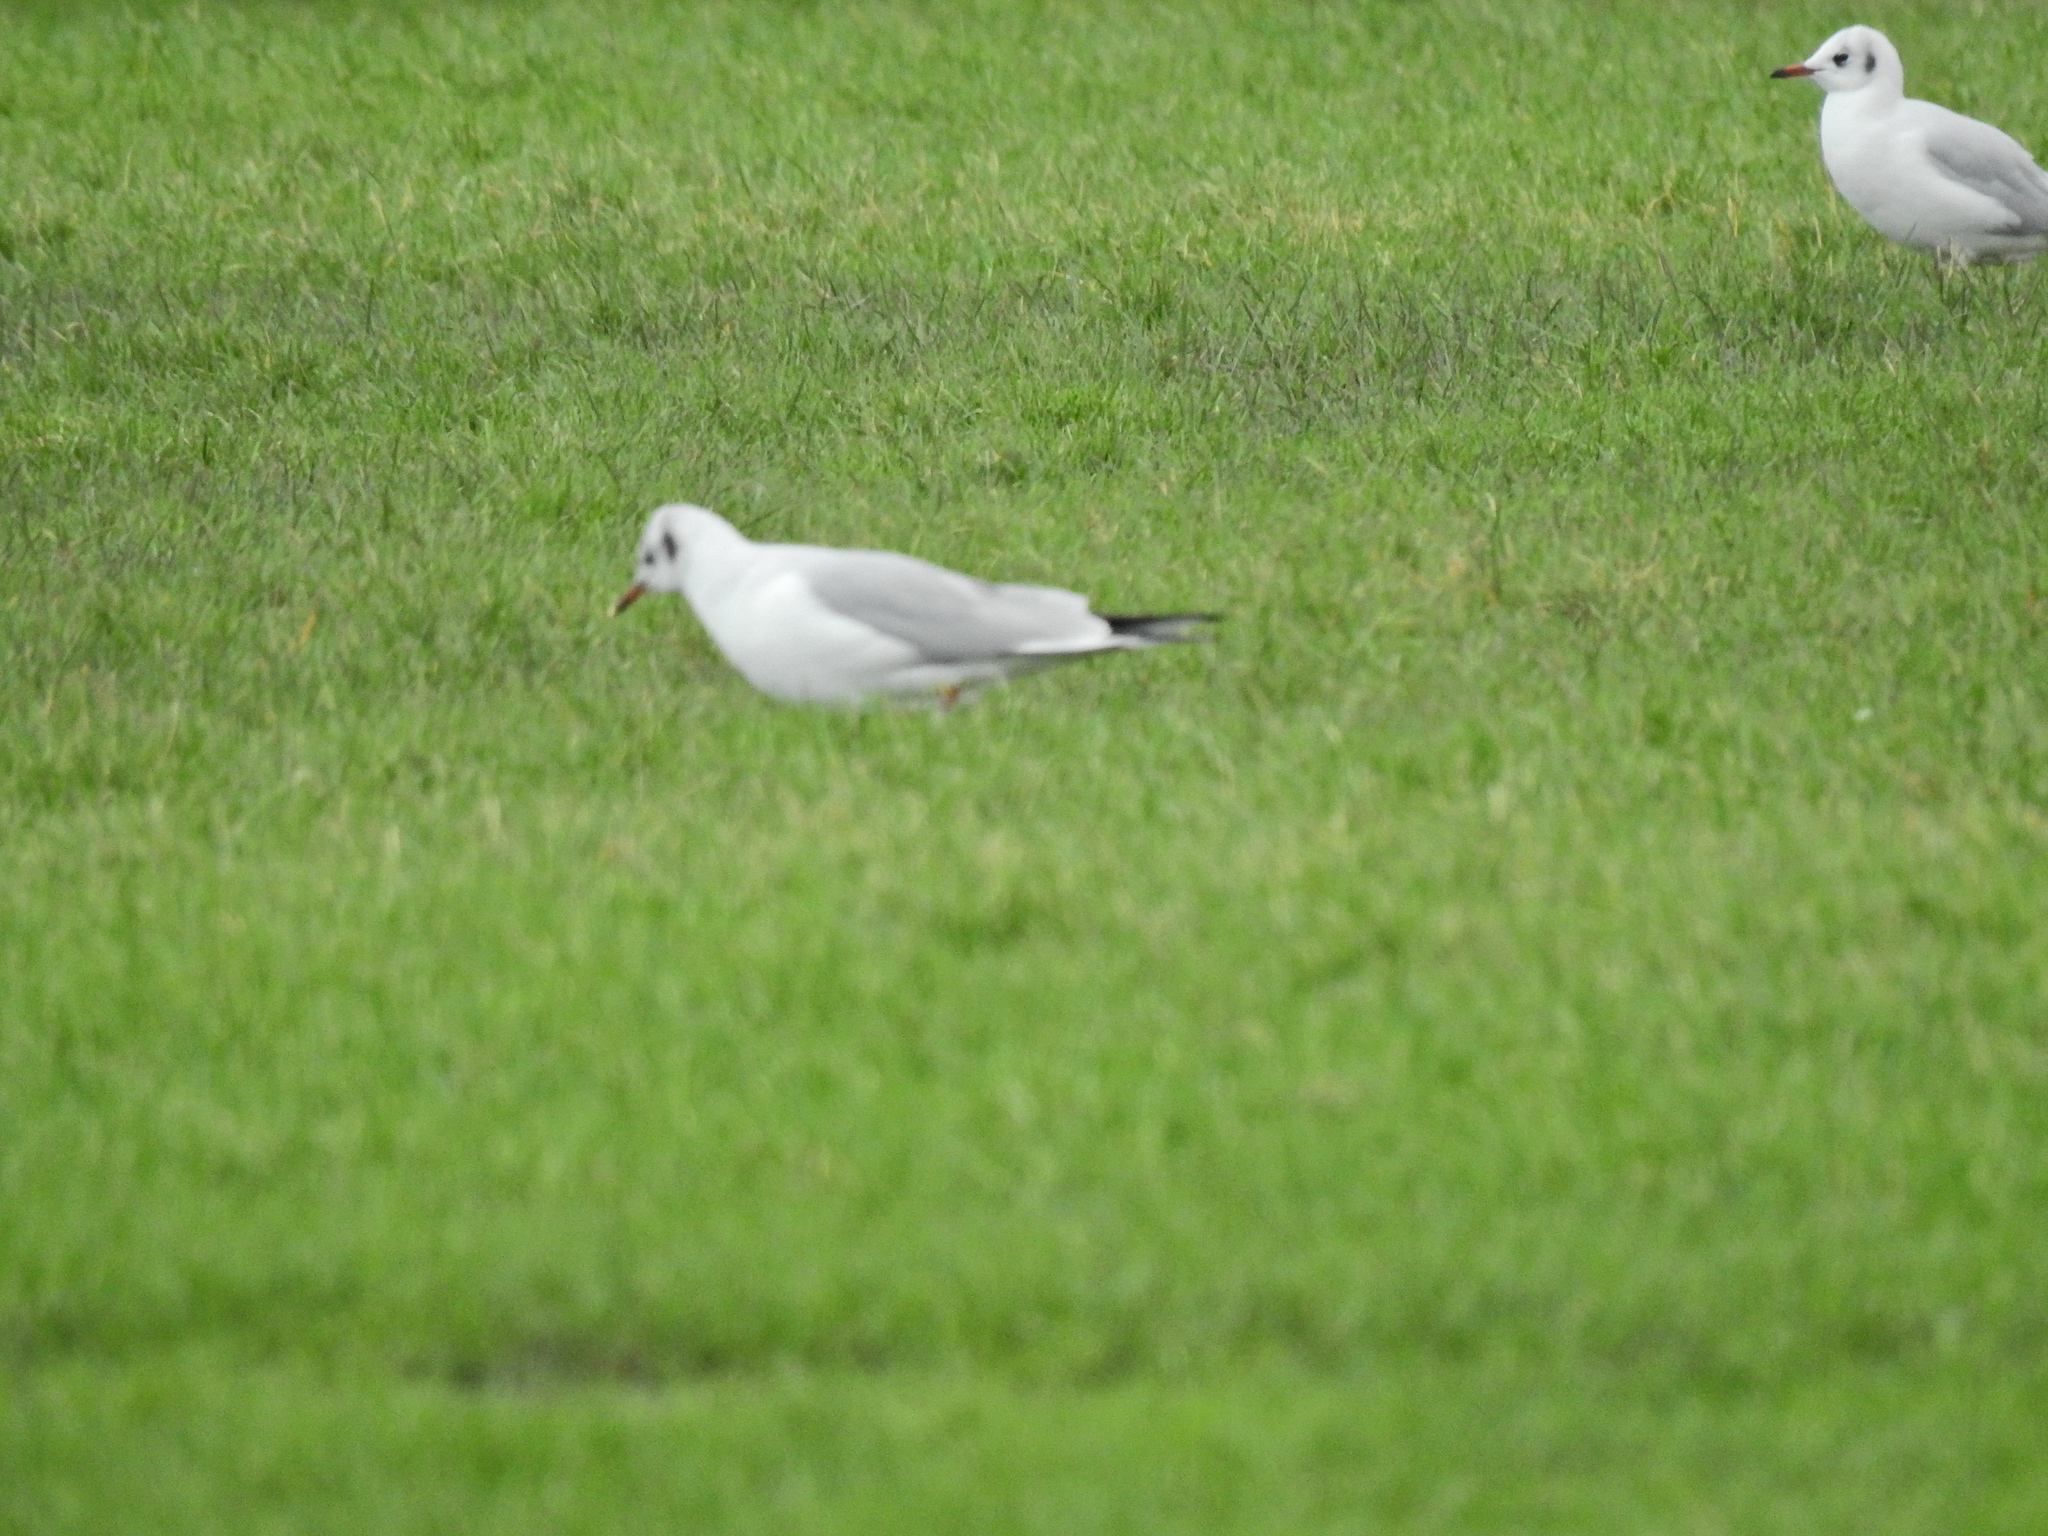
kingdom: Animalia
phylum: Chordata
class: Aves
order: Charadriiformes
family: Laridae
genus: Chroicocephalus
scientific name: Chroicocephalus ridibundus
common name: Black-headed gull
